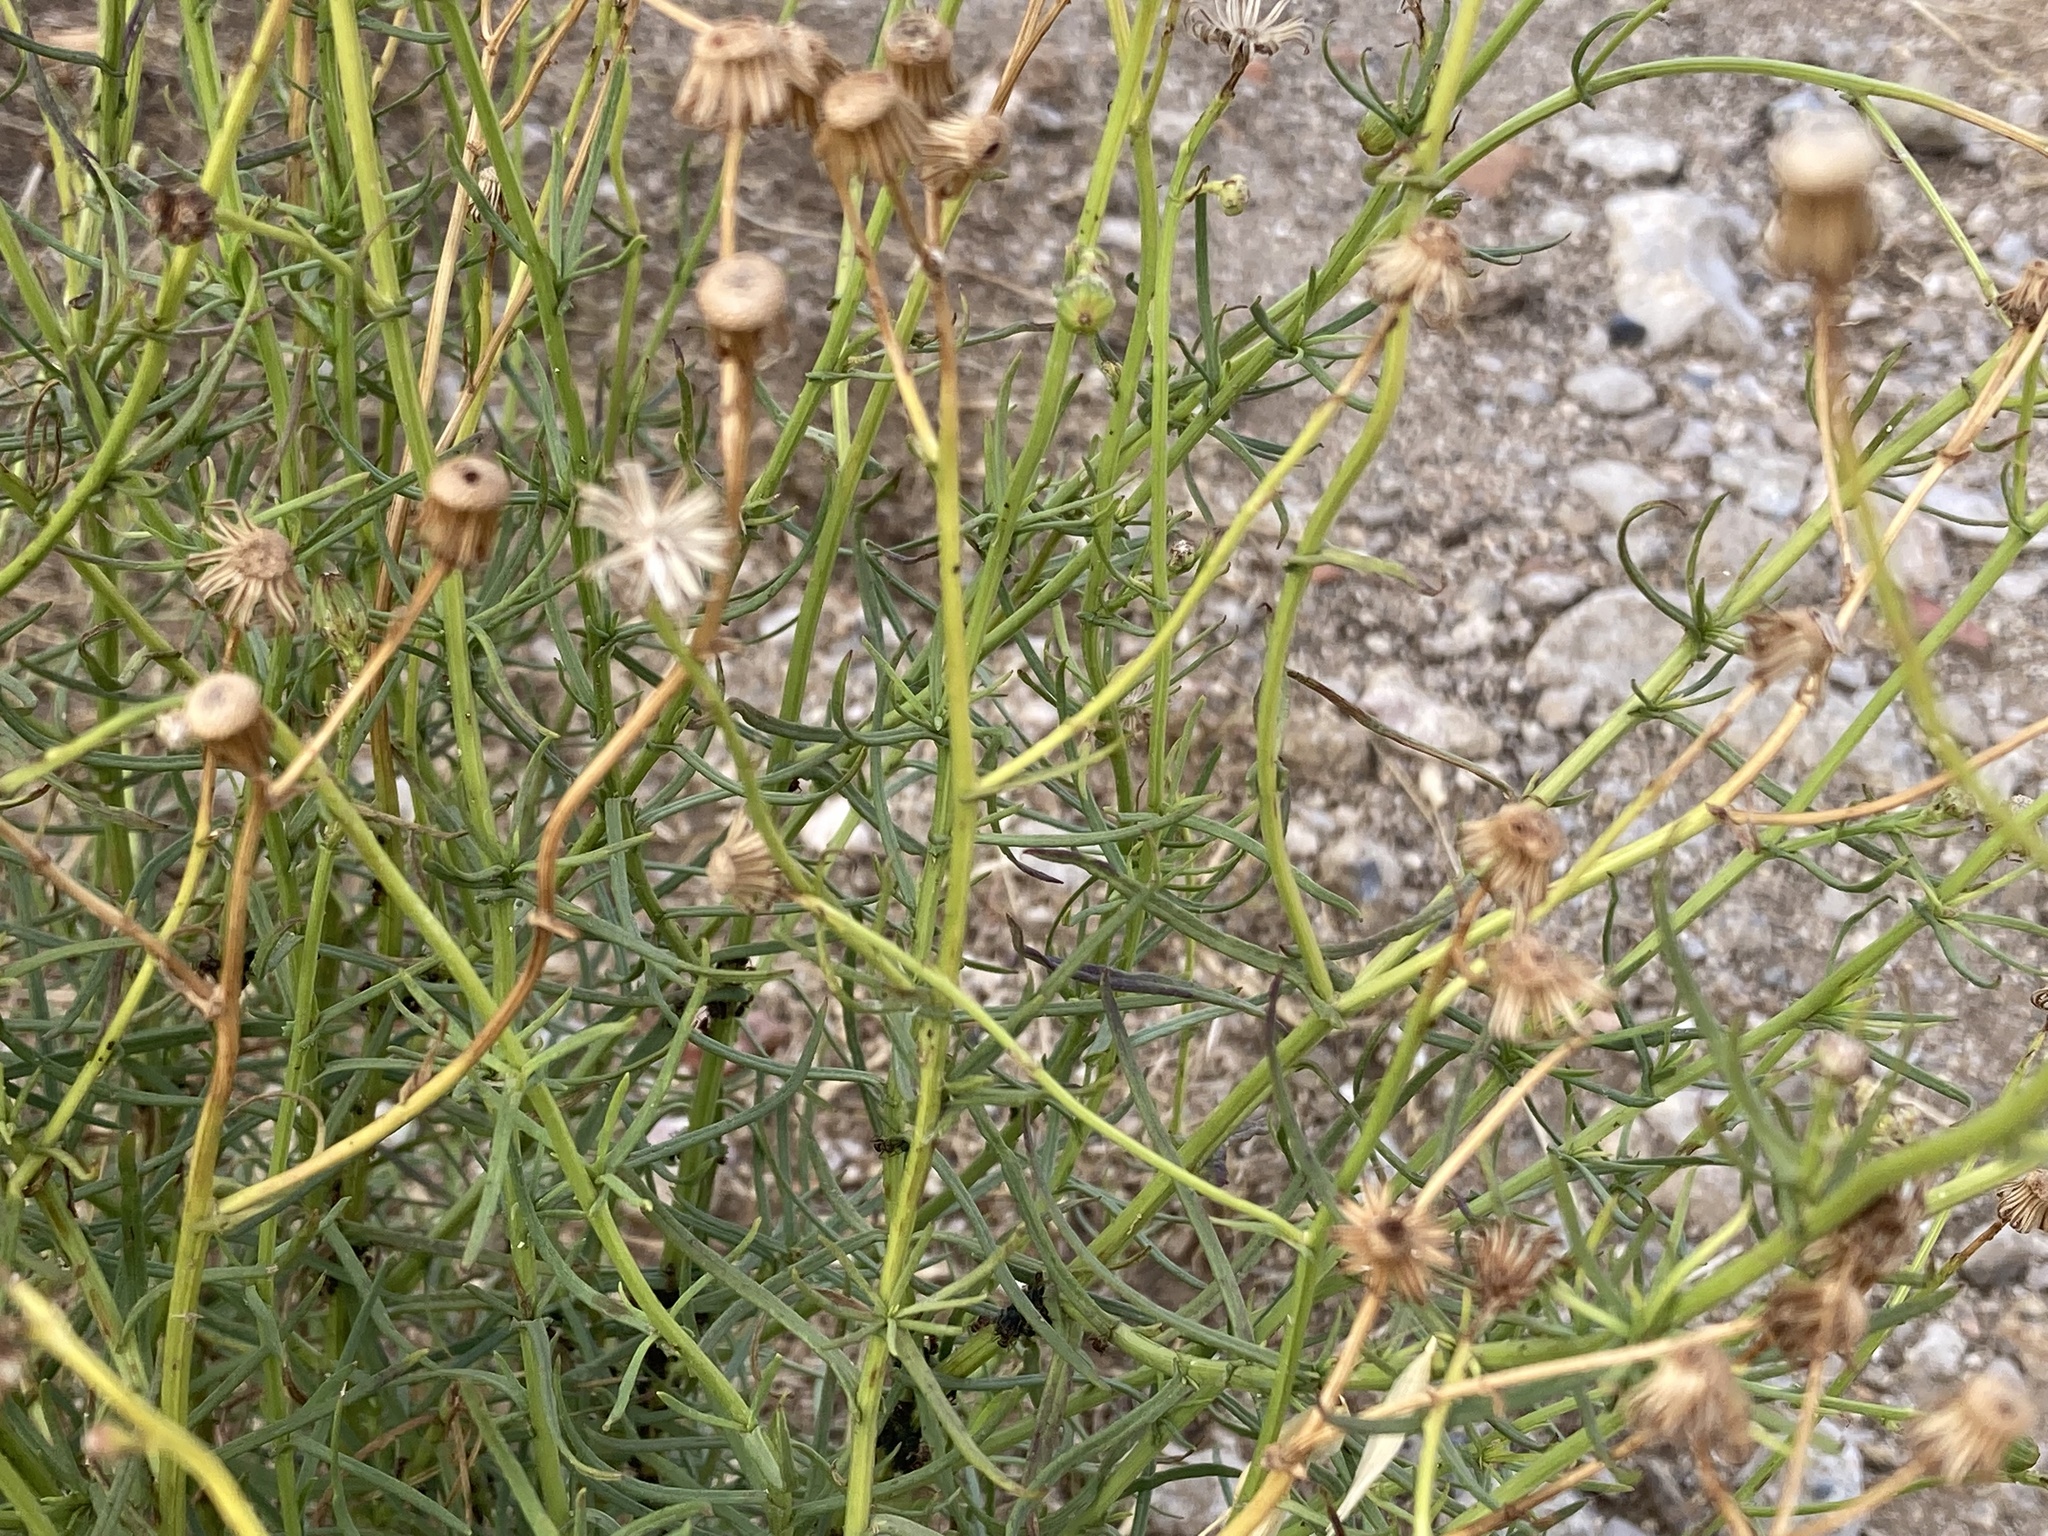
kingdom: Plantae
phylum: Tracheophyta
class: Magnoliopsida
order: Asterales
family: Asteraceae
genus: Senecio
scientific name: Senecio inaequidens
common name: Narrow-leaved ragwort
